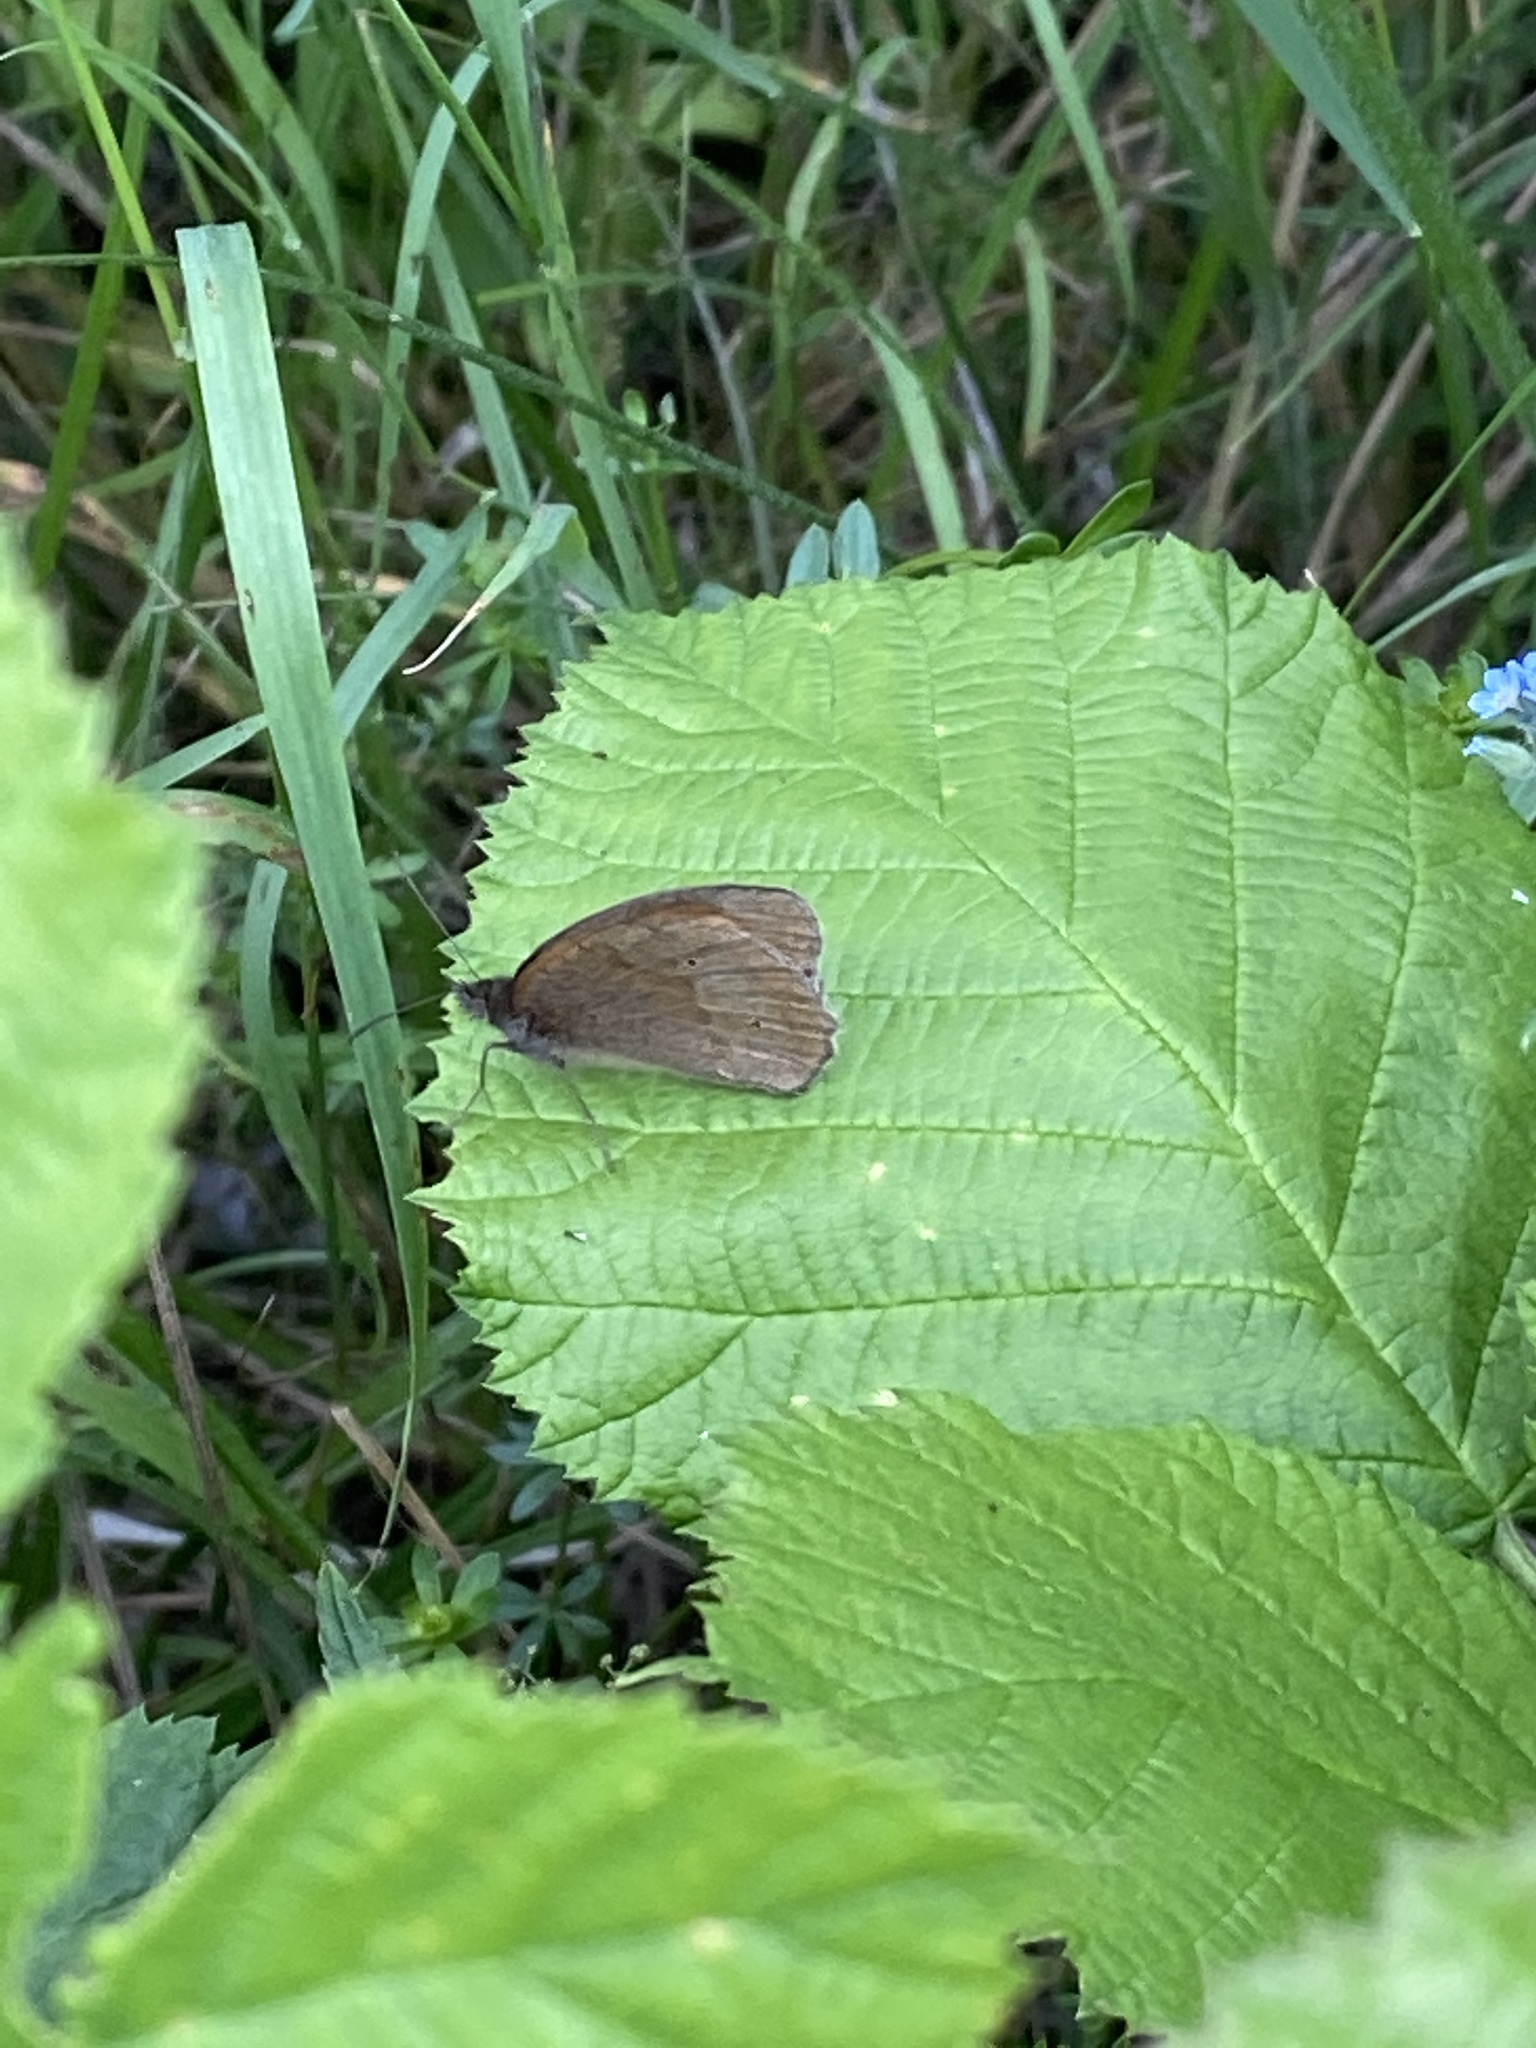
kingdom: Animalia
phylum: Arthropoda
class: Insecta
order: Lepidoptera
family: Nymphalidae
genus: Maniola
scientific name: Maniola jurtina
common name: Meadow brown
